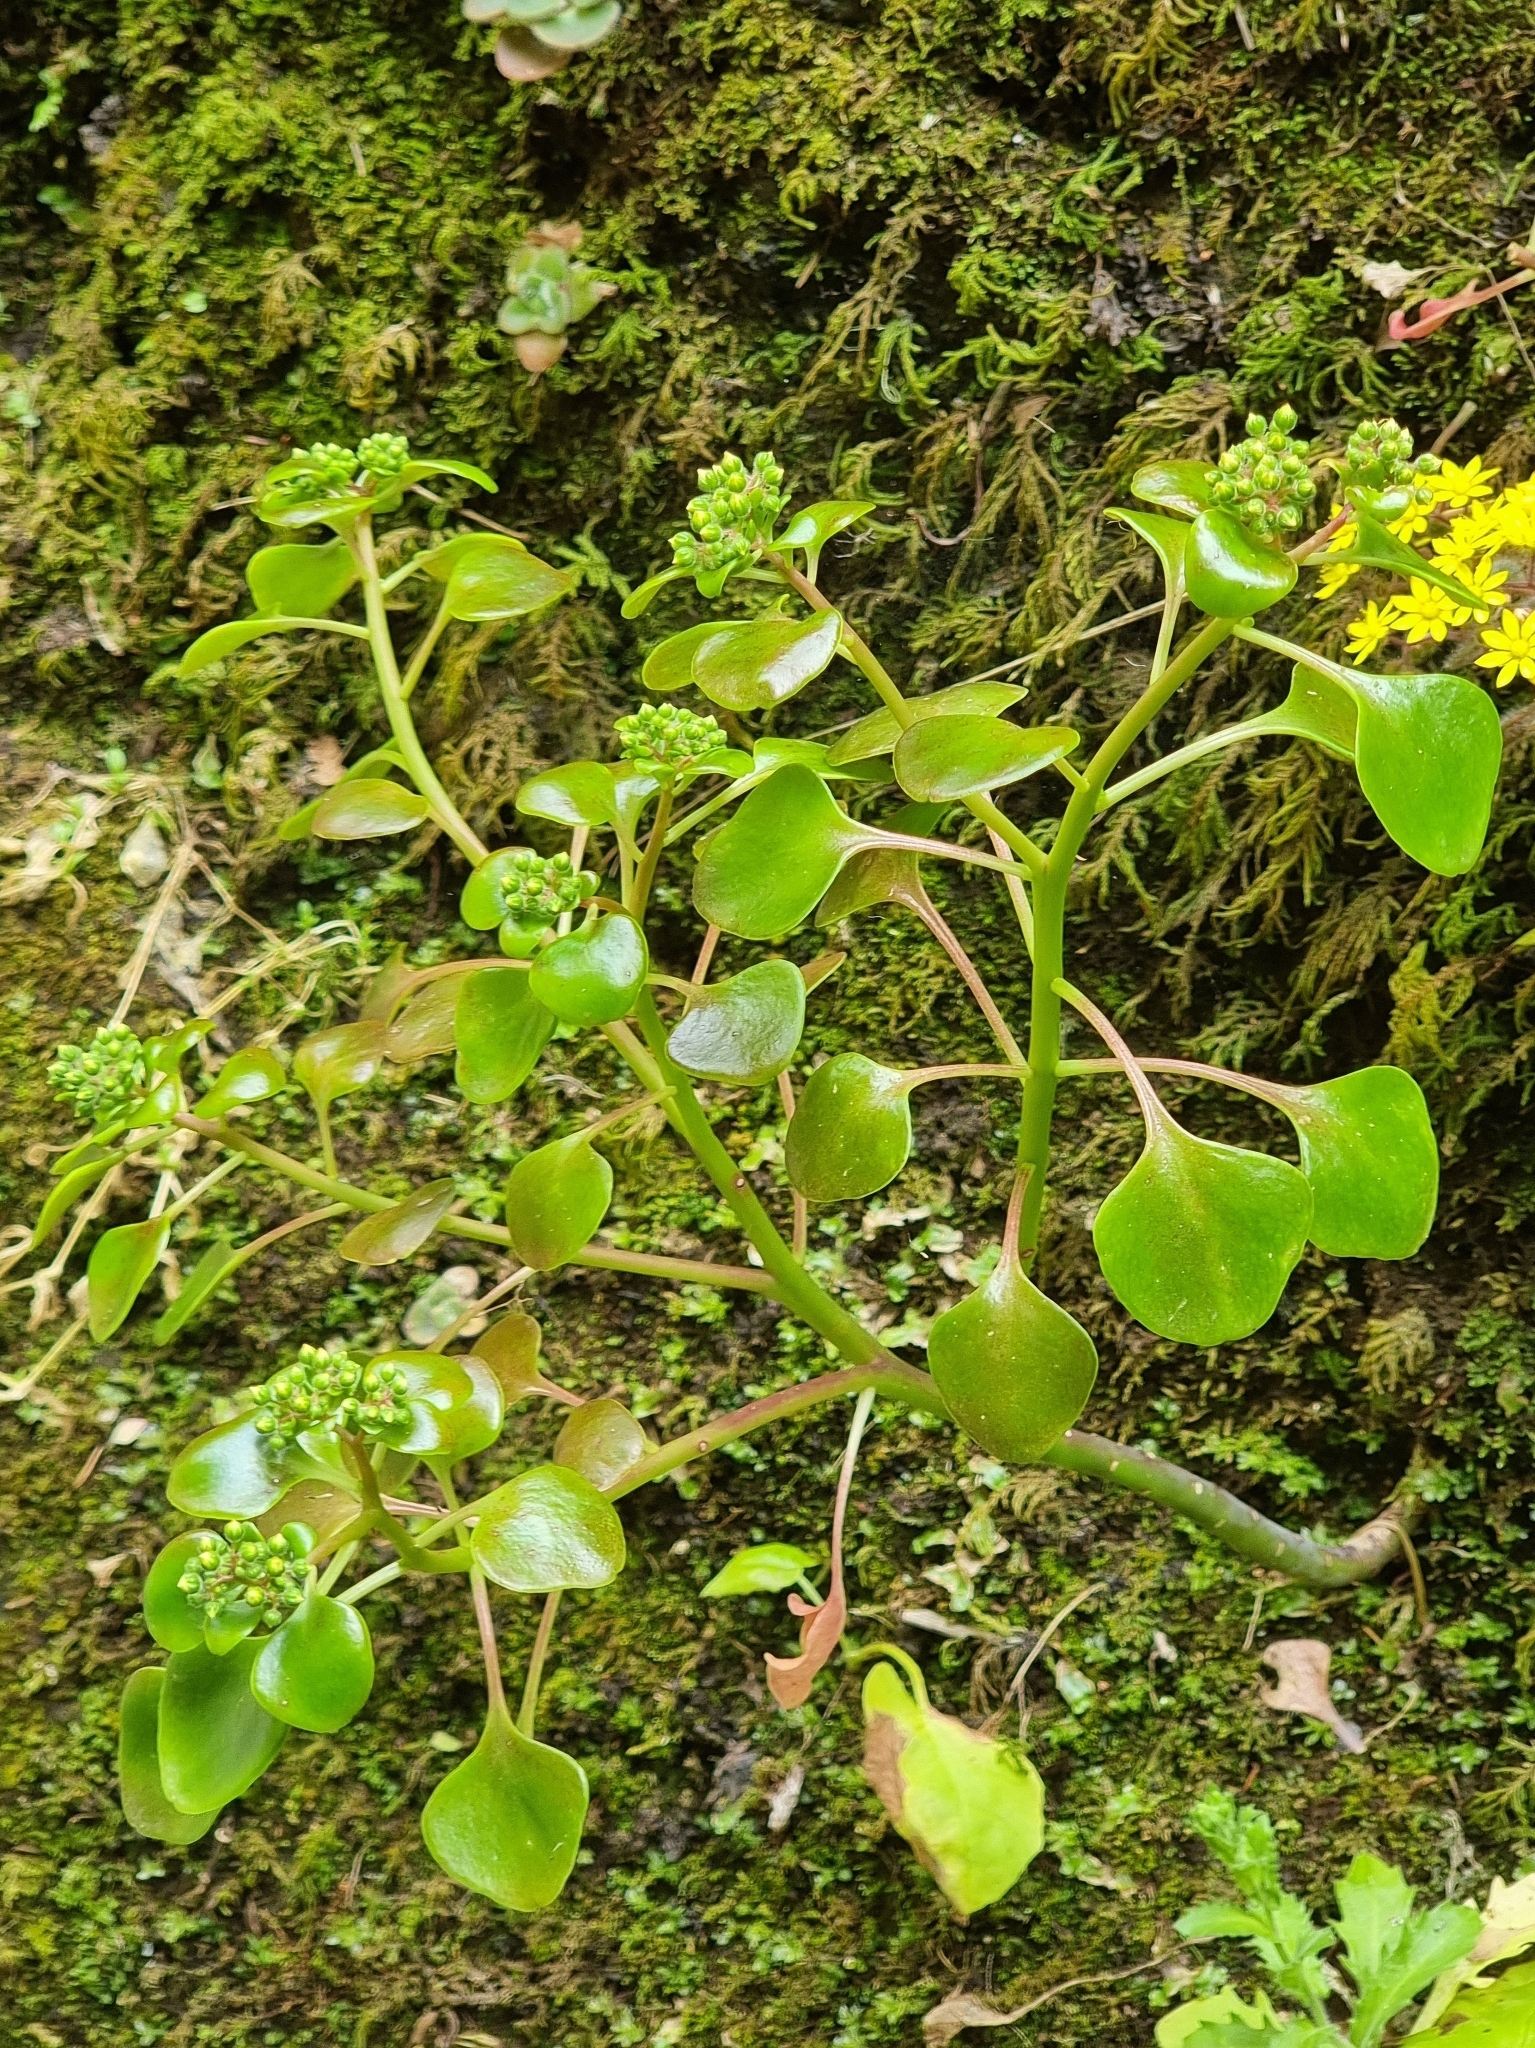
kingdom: Plantae
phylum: Tracheophyta
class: Magnoliopsida
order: Saxifragales
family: Crassulaceae
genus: Aichryson
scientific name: Aichryson divaricatum
